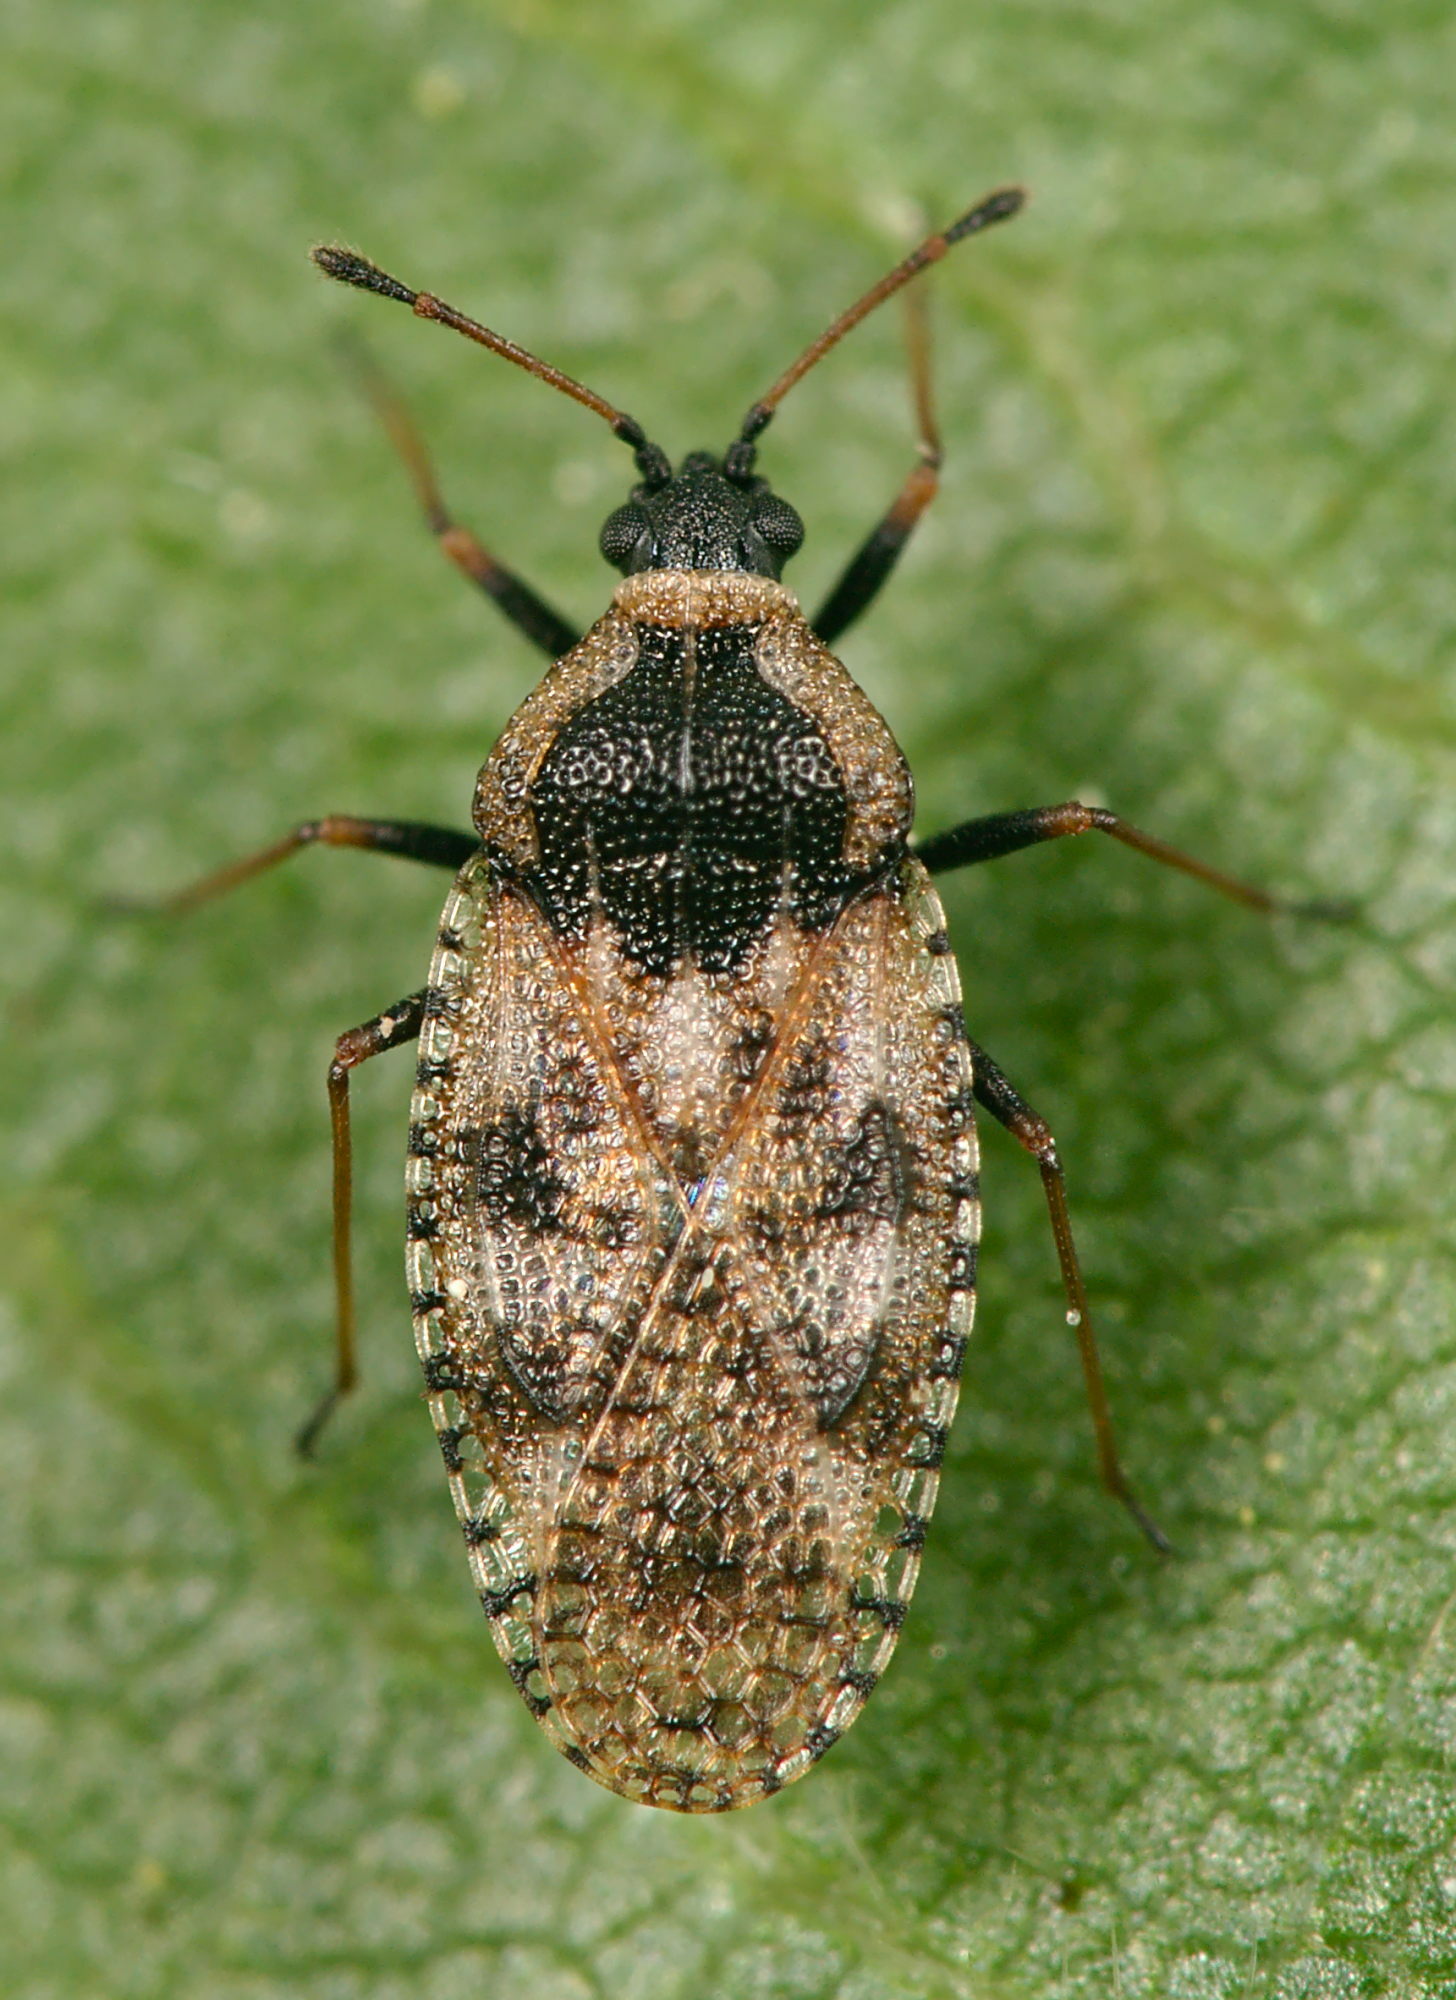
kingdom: Animalia
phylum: Arthropoda
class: Insecta
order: Hemiptera
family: Tingidae
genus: Dictyla
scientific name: Dictyla echii
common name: Lace bug
